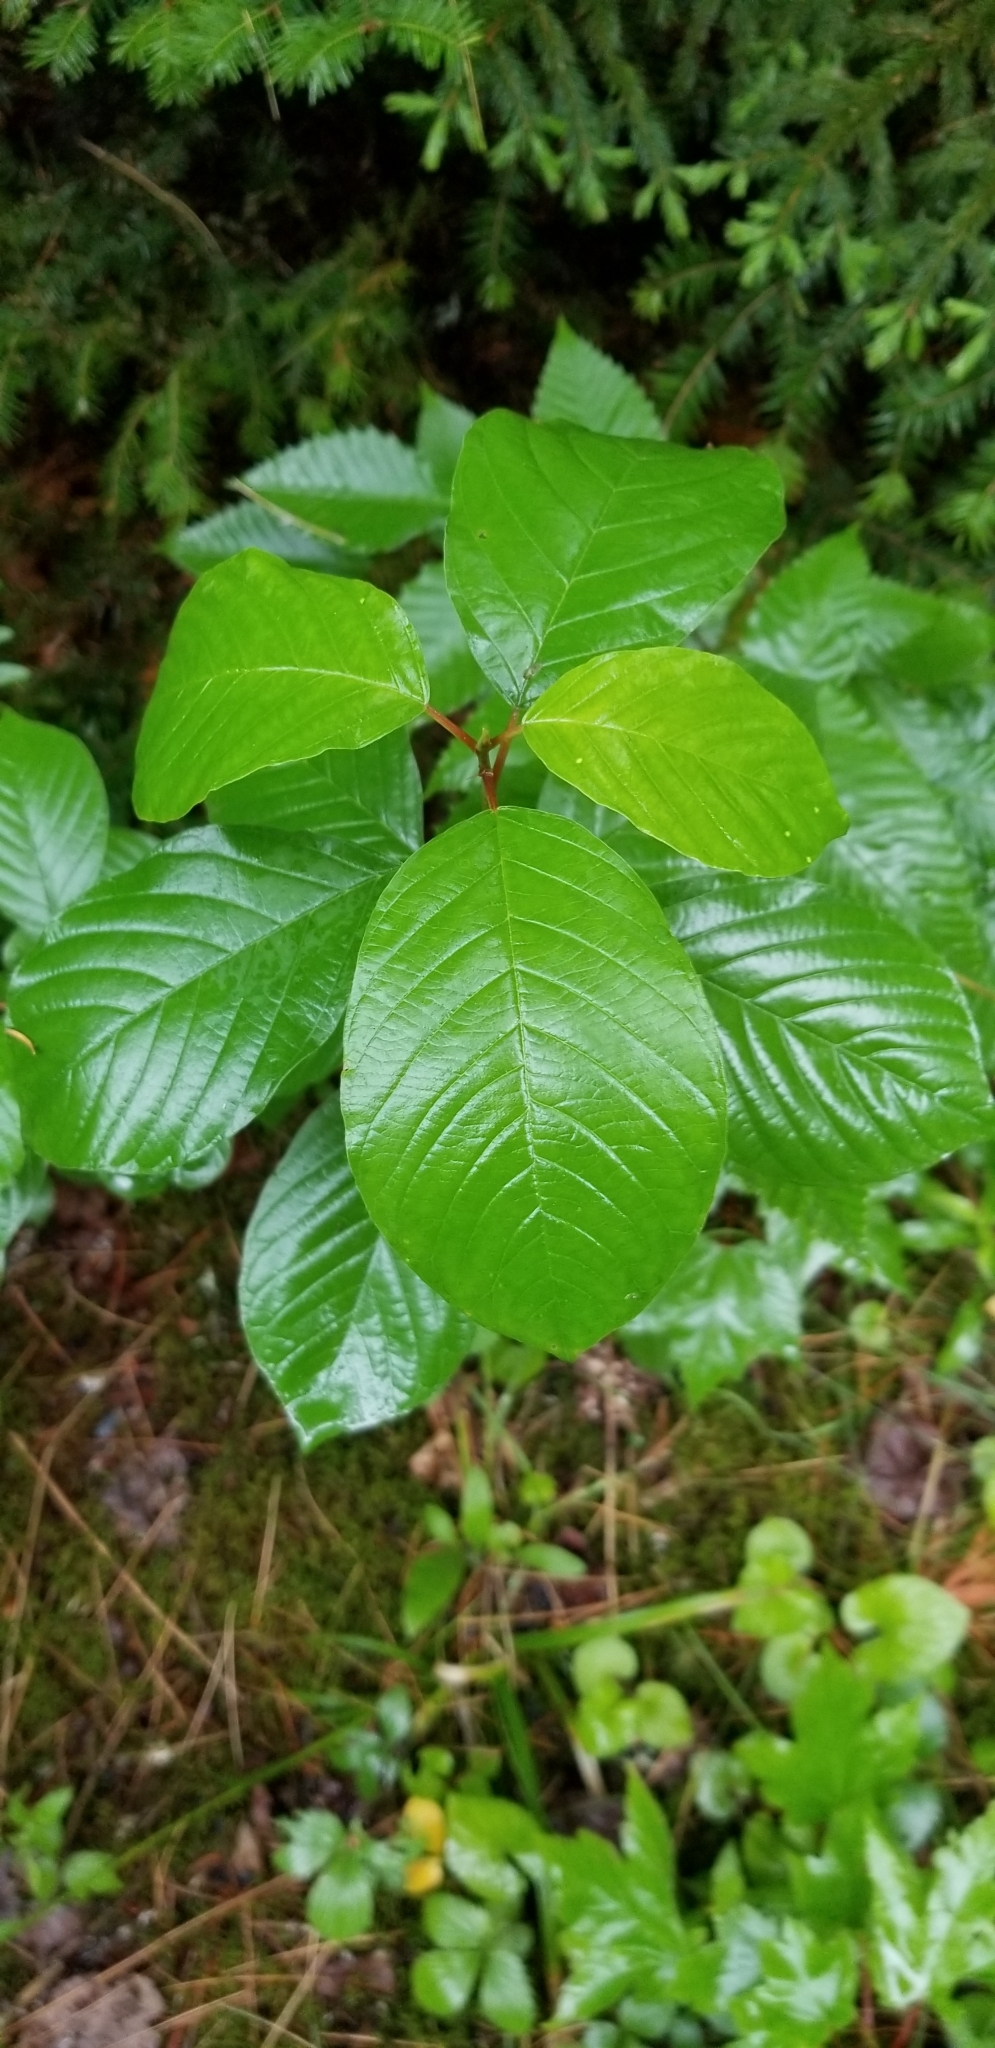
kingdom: Plantae
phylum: Tracheophyta
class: Magnoliopsida
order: Rosales
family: Rhamnaceae
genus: Frangula
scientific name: Frangula alnus
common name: Alder buckthorn
